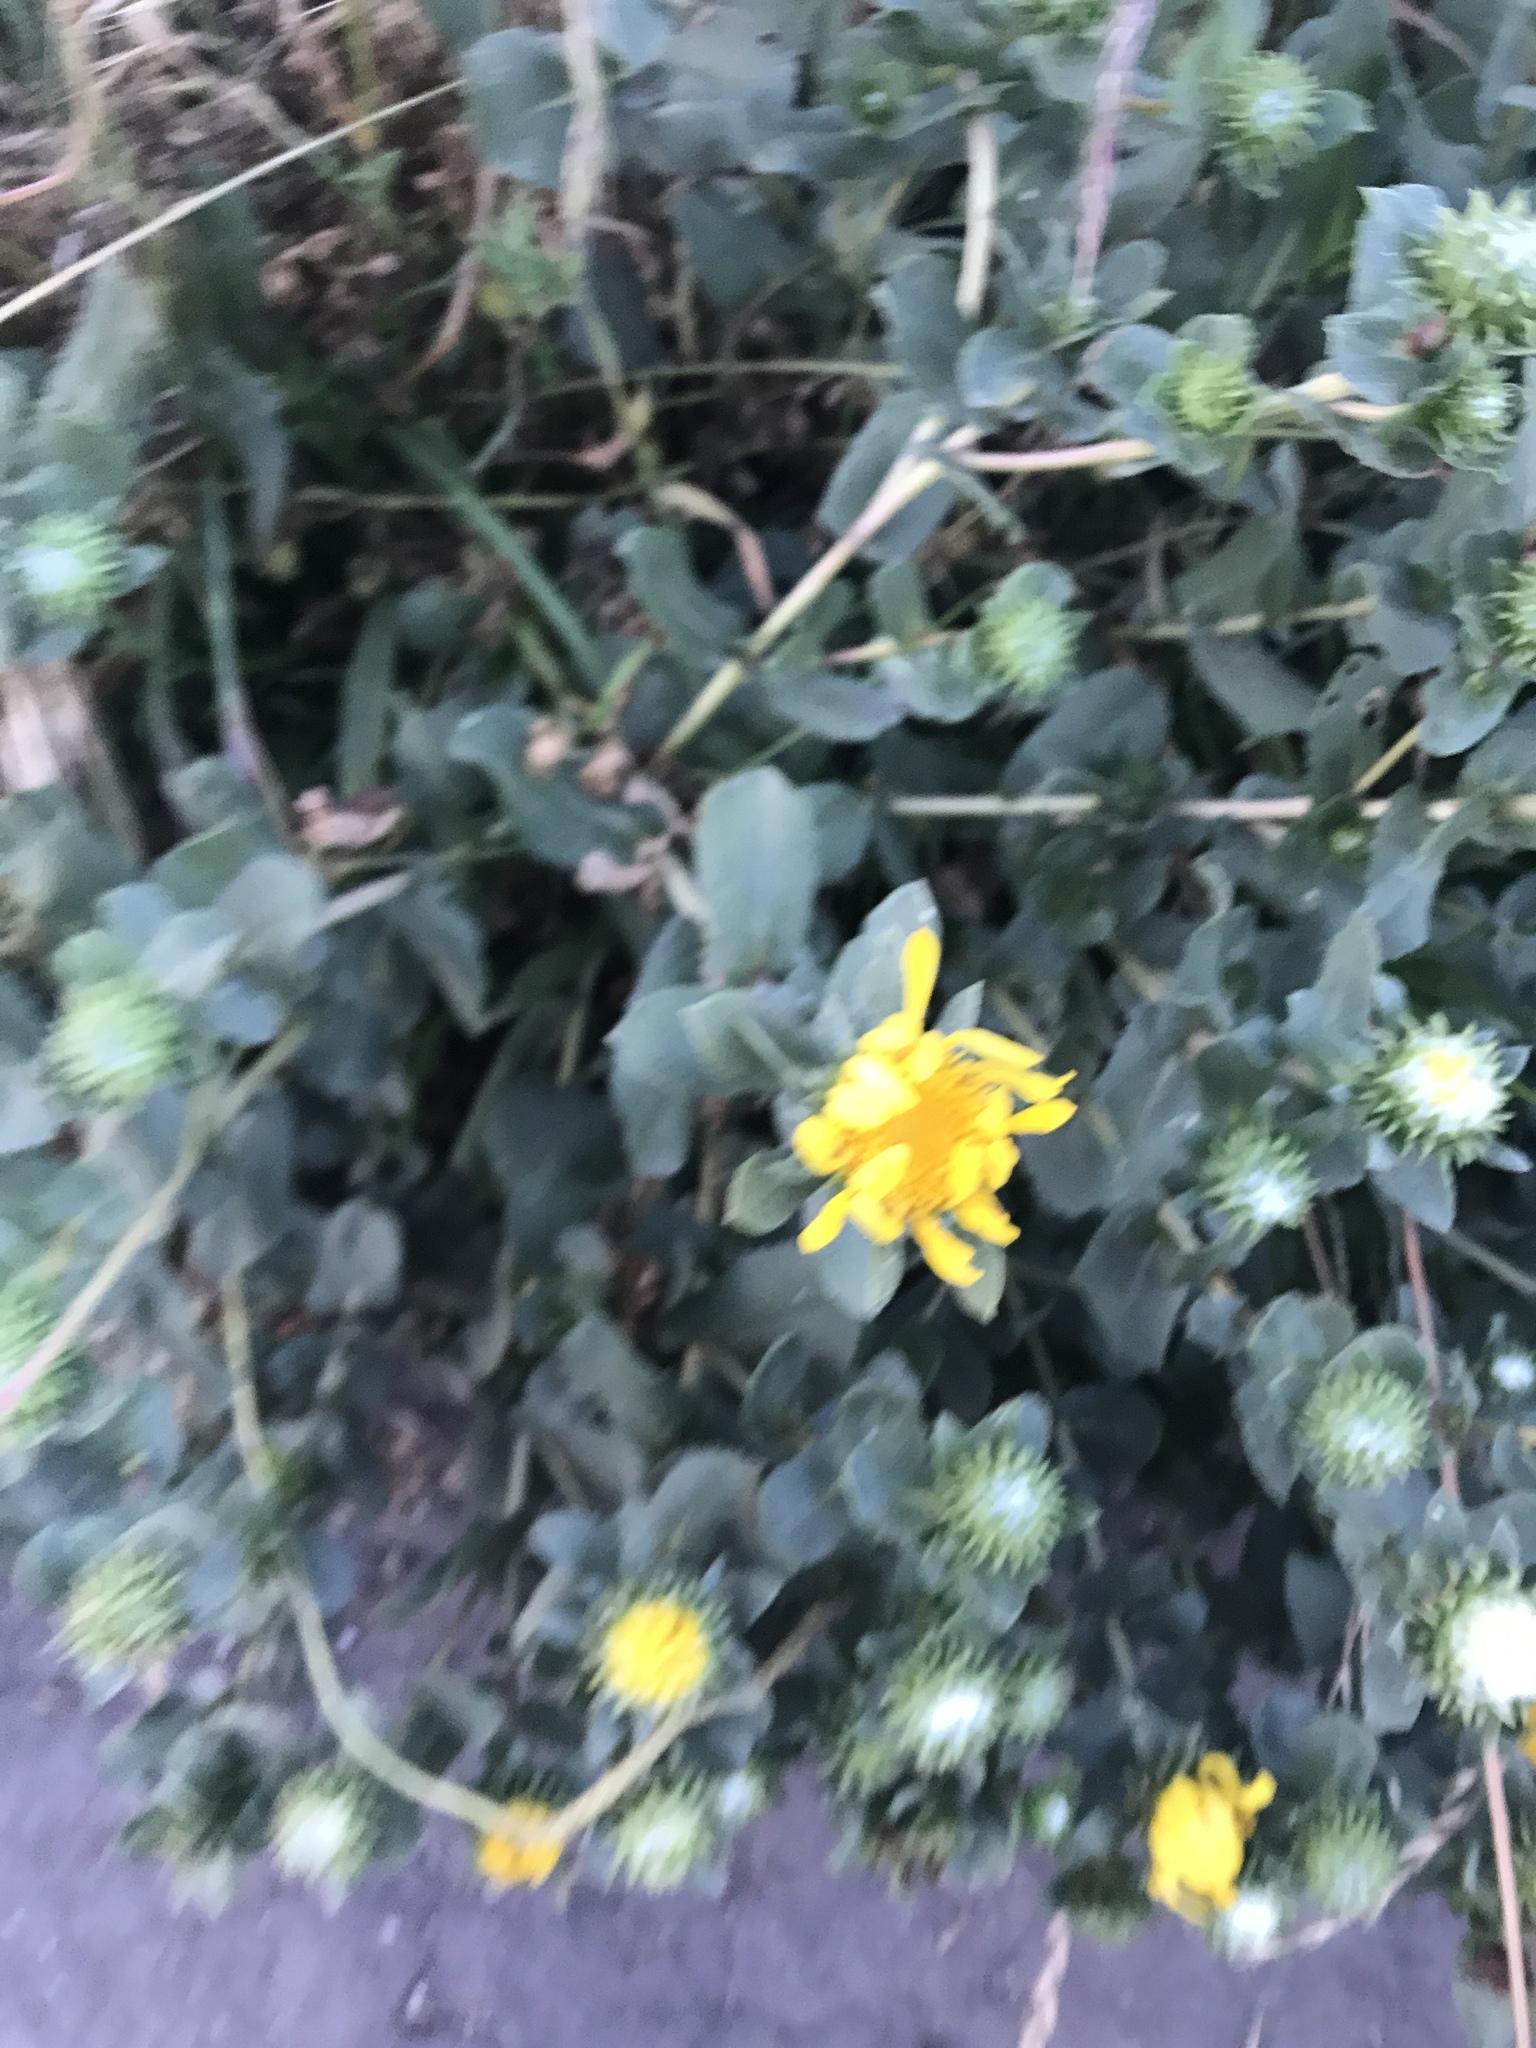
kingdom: Plantae
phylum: Tracheophyta
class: Magnoliopsida
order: Asterales
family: Asteraceae
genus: Grindelia
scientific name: Grindelia hirsutula
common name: Hairy gumweed
